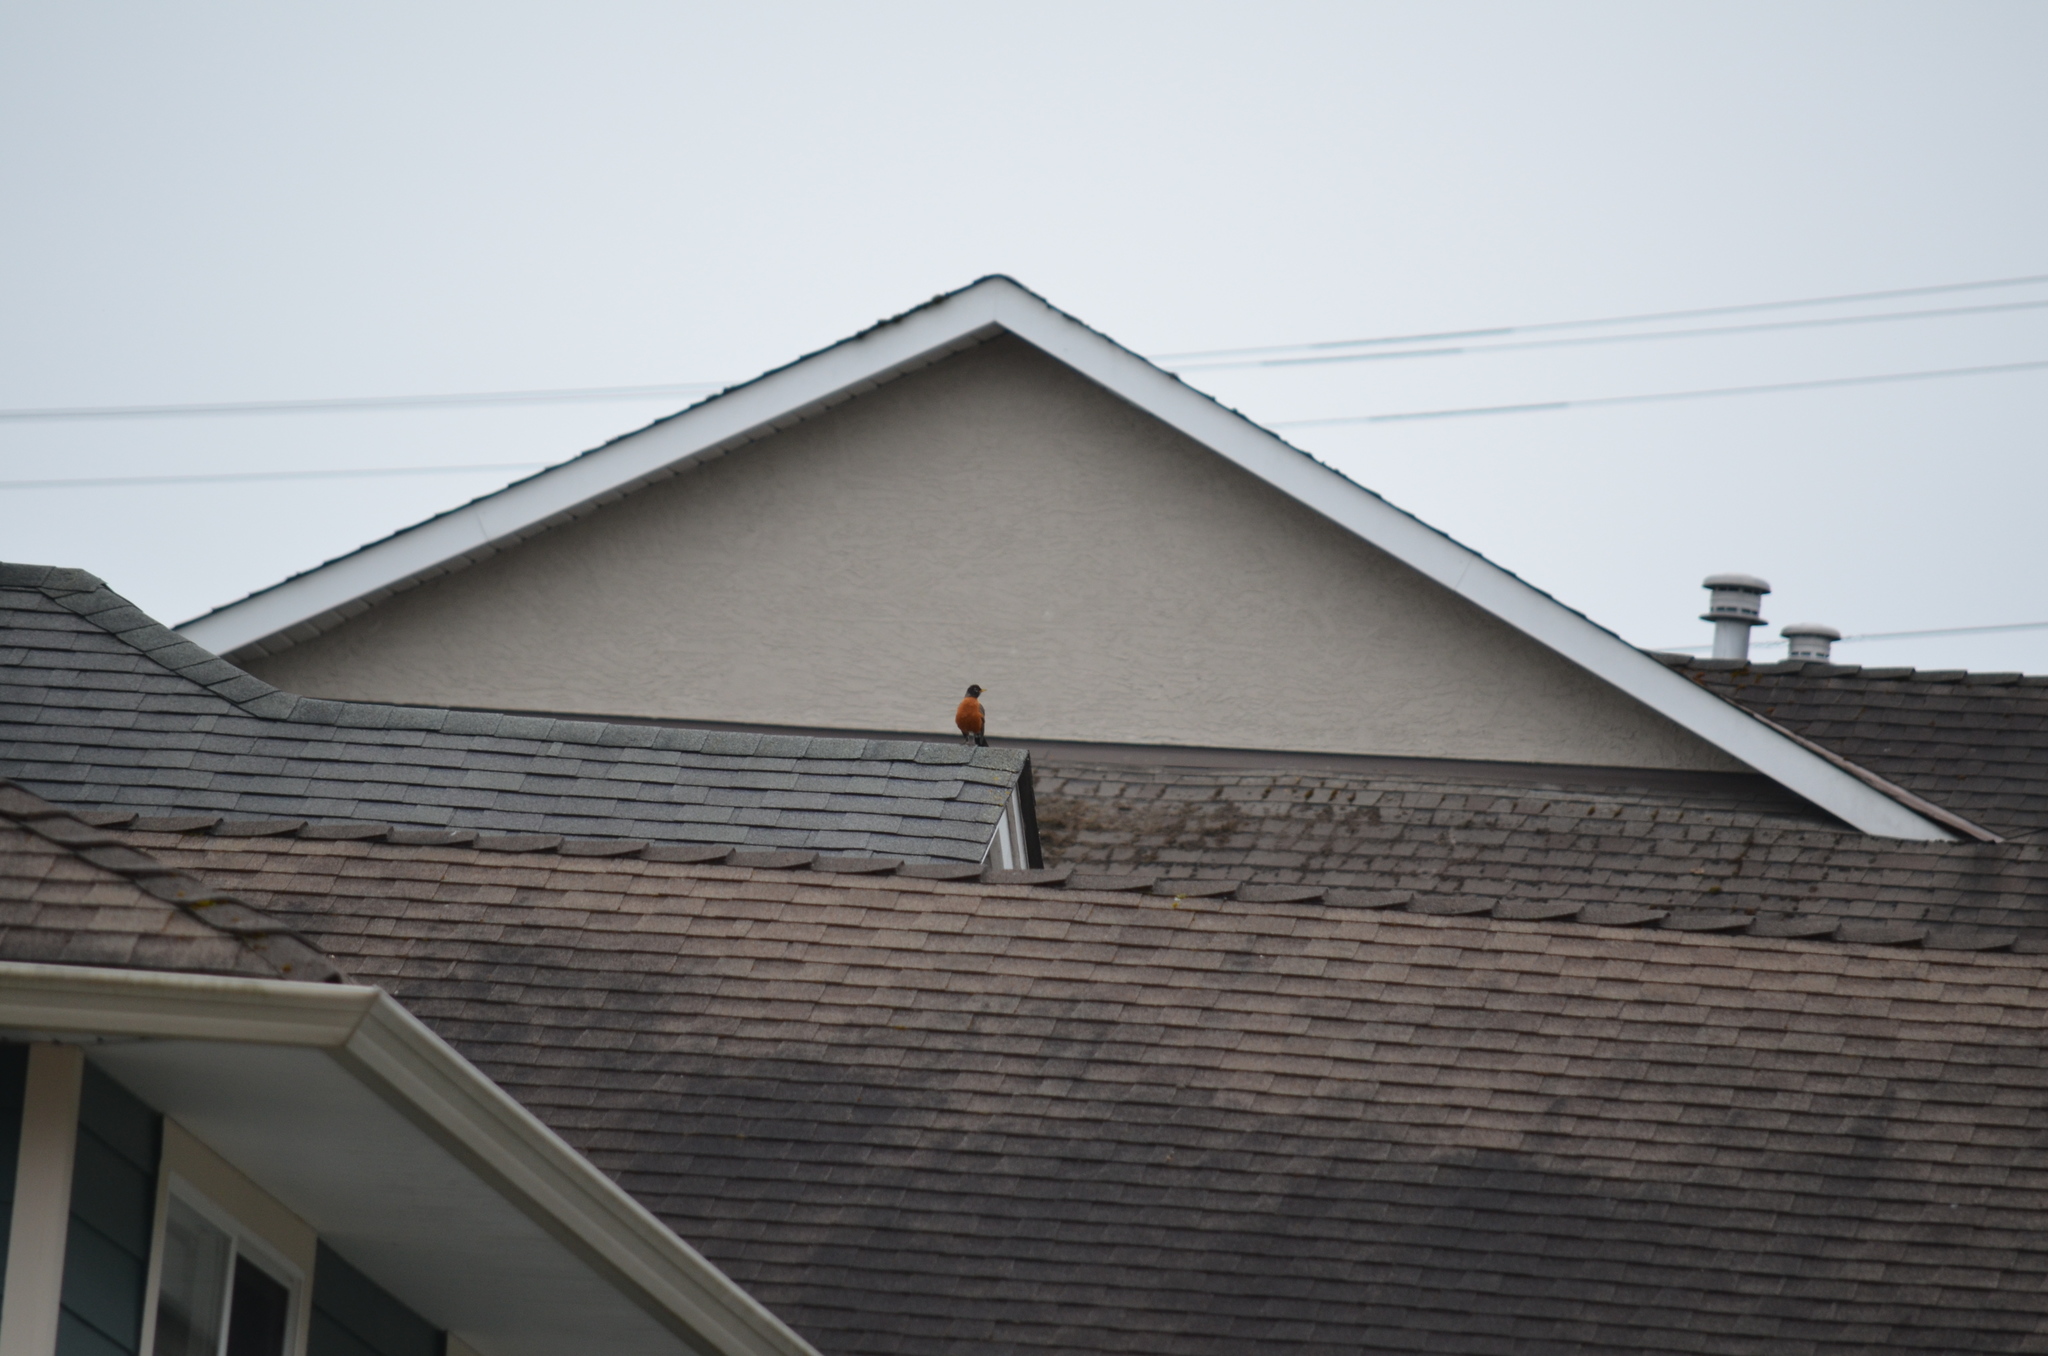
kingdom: Animalia
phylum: Chordata
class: Aves
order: Passeriformes
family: Turdidae
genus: Turdus
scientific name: Turdus migratorius
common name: American robin
